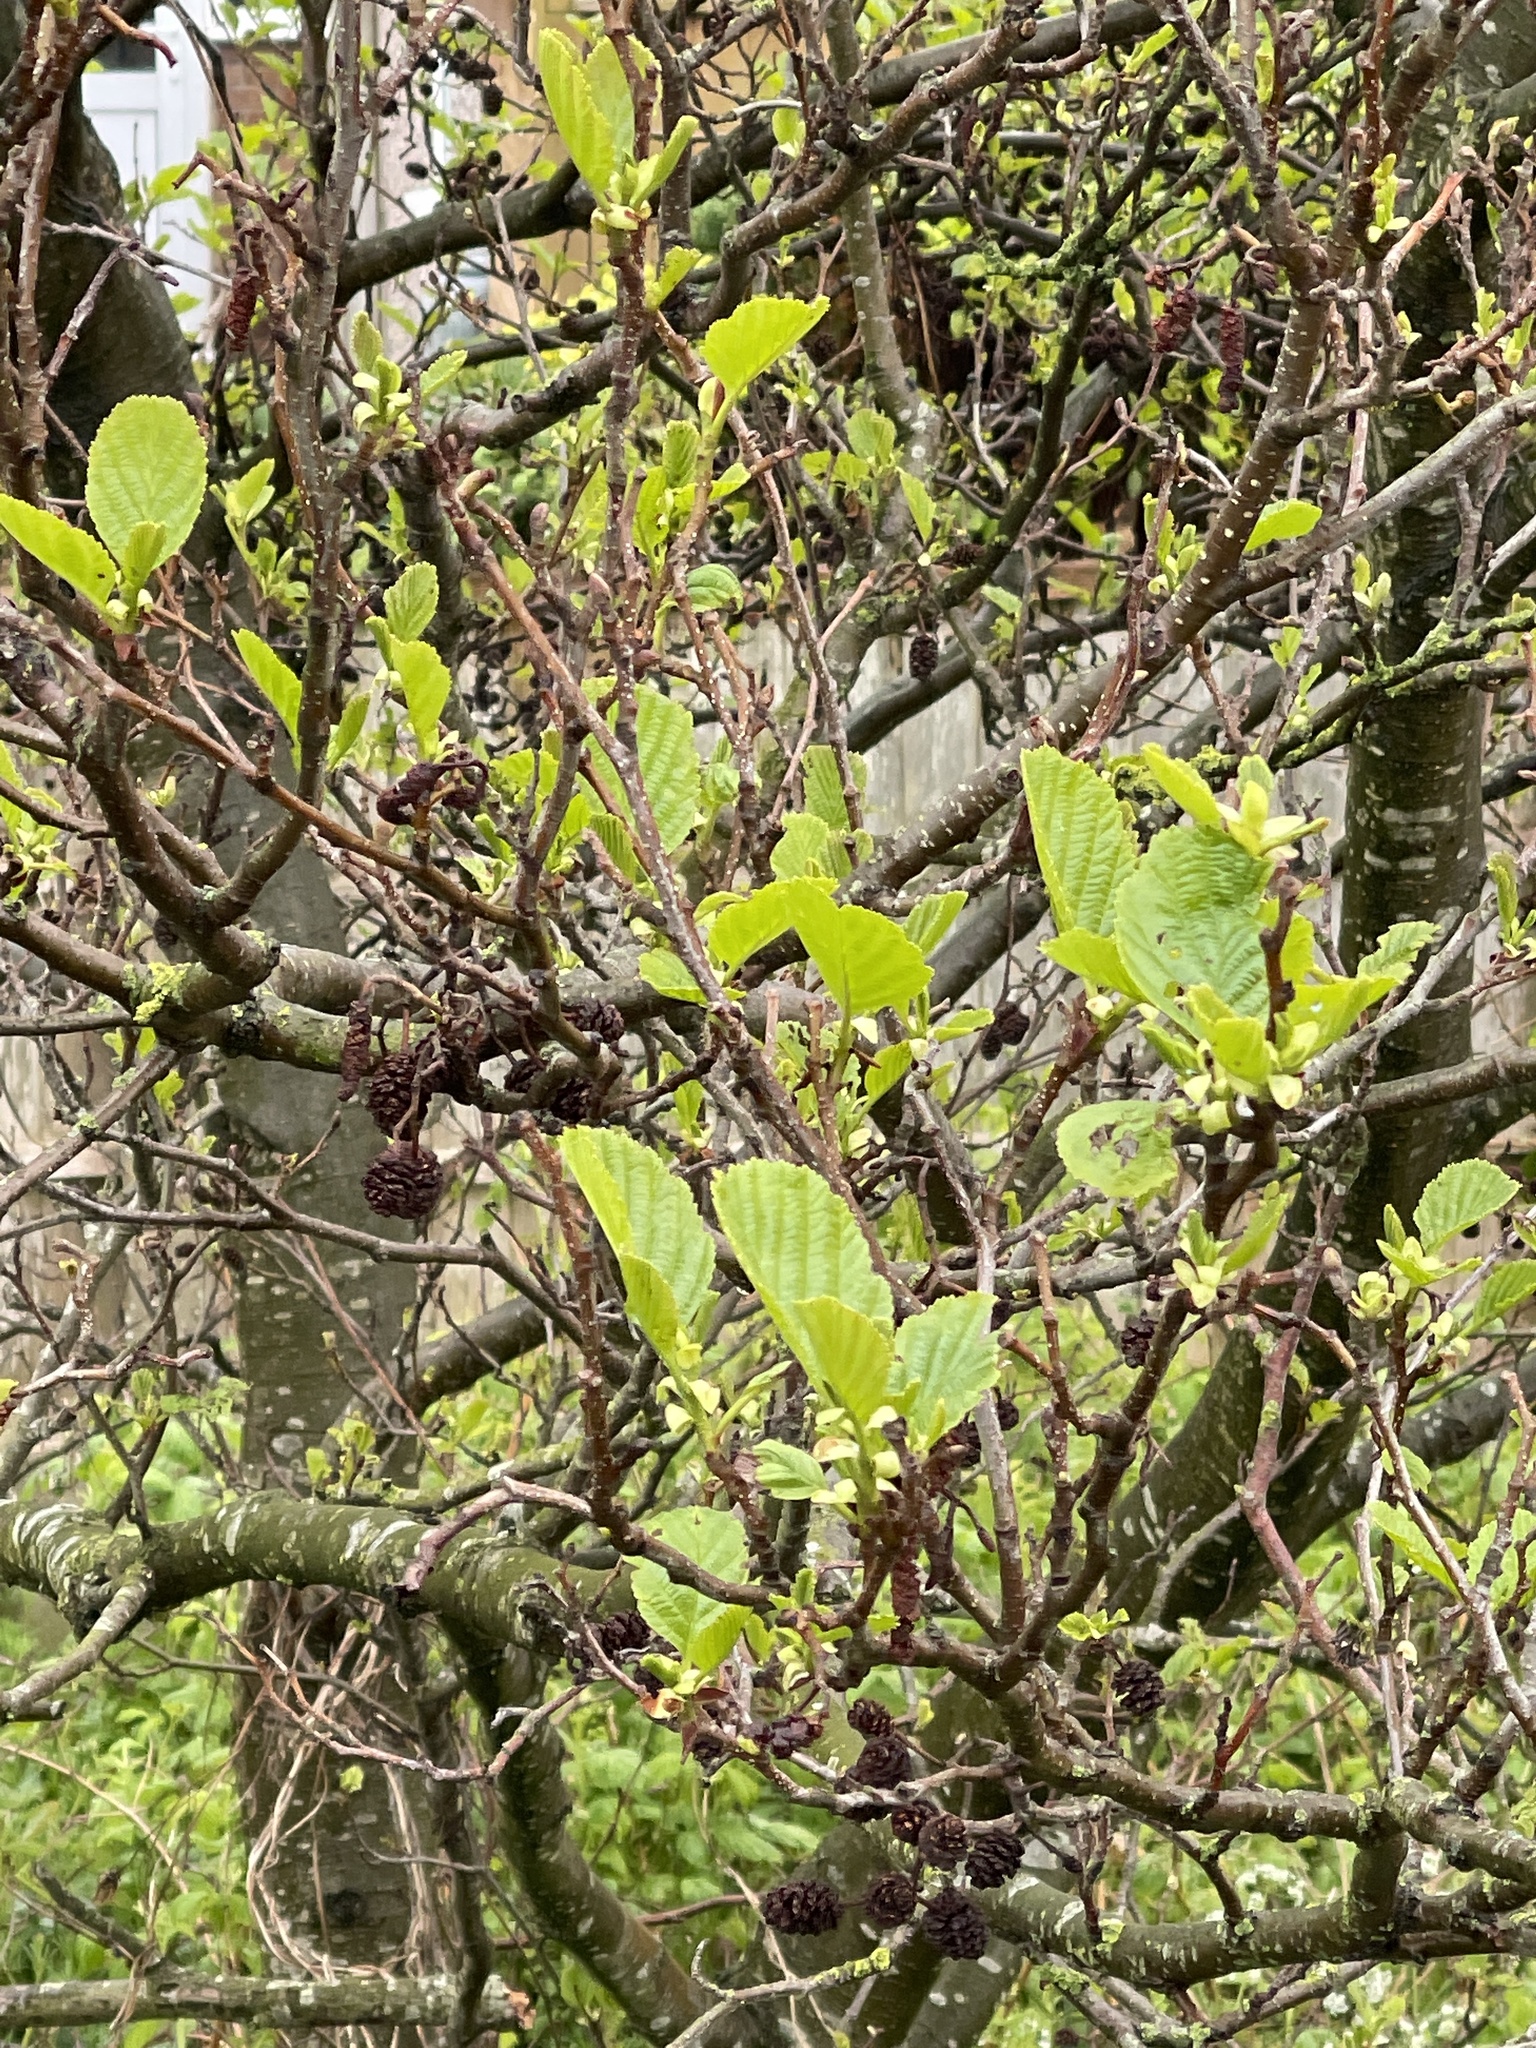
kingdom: Plantae
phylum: Tracheophyta
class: Magnoliopsida
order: Fagales
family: Betulaceae
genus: Alnus
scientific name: Alnus glutinosa
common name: Black alder
